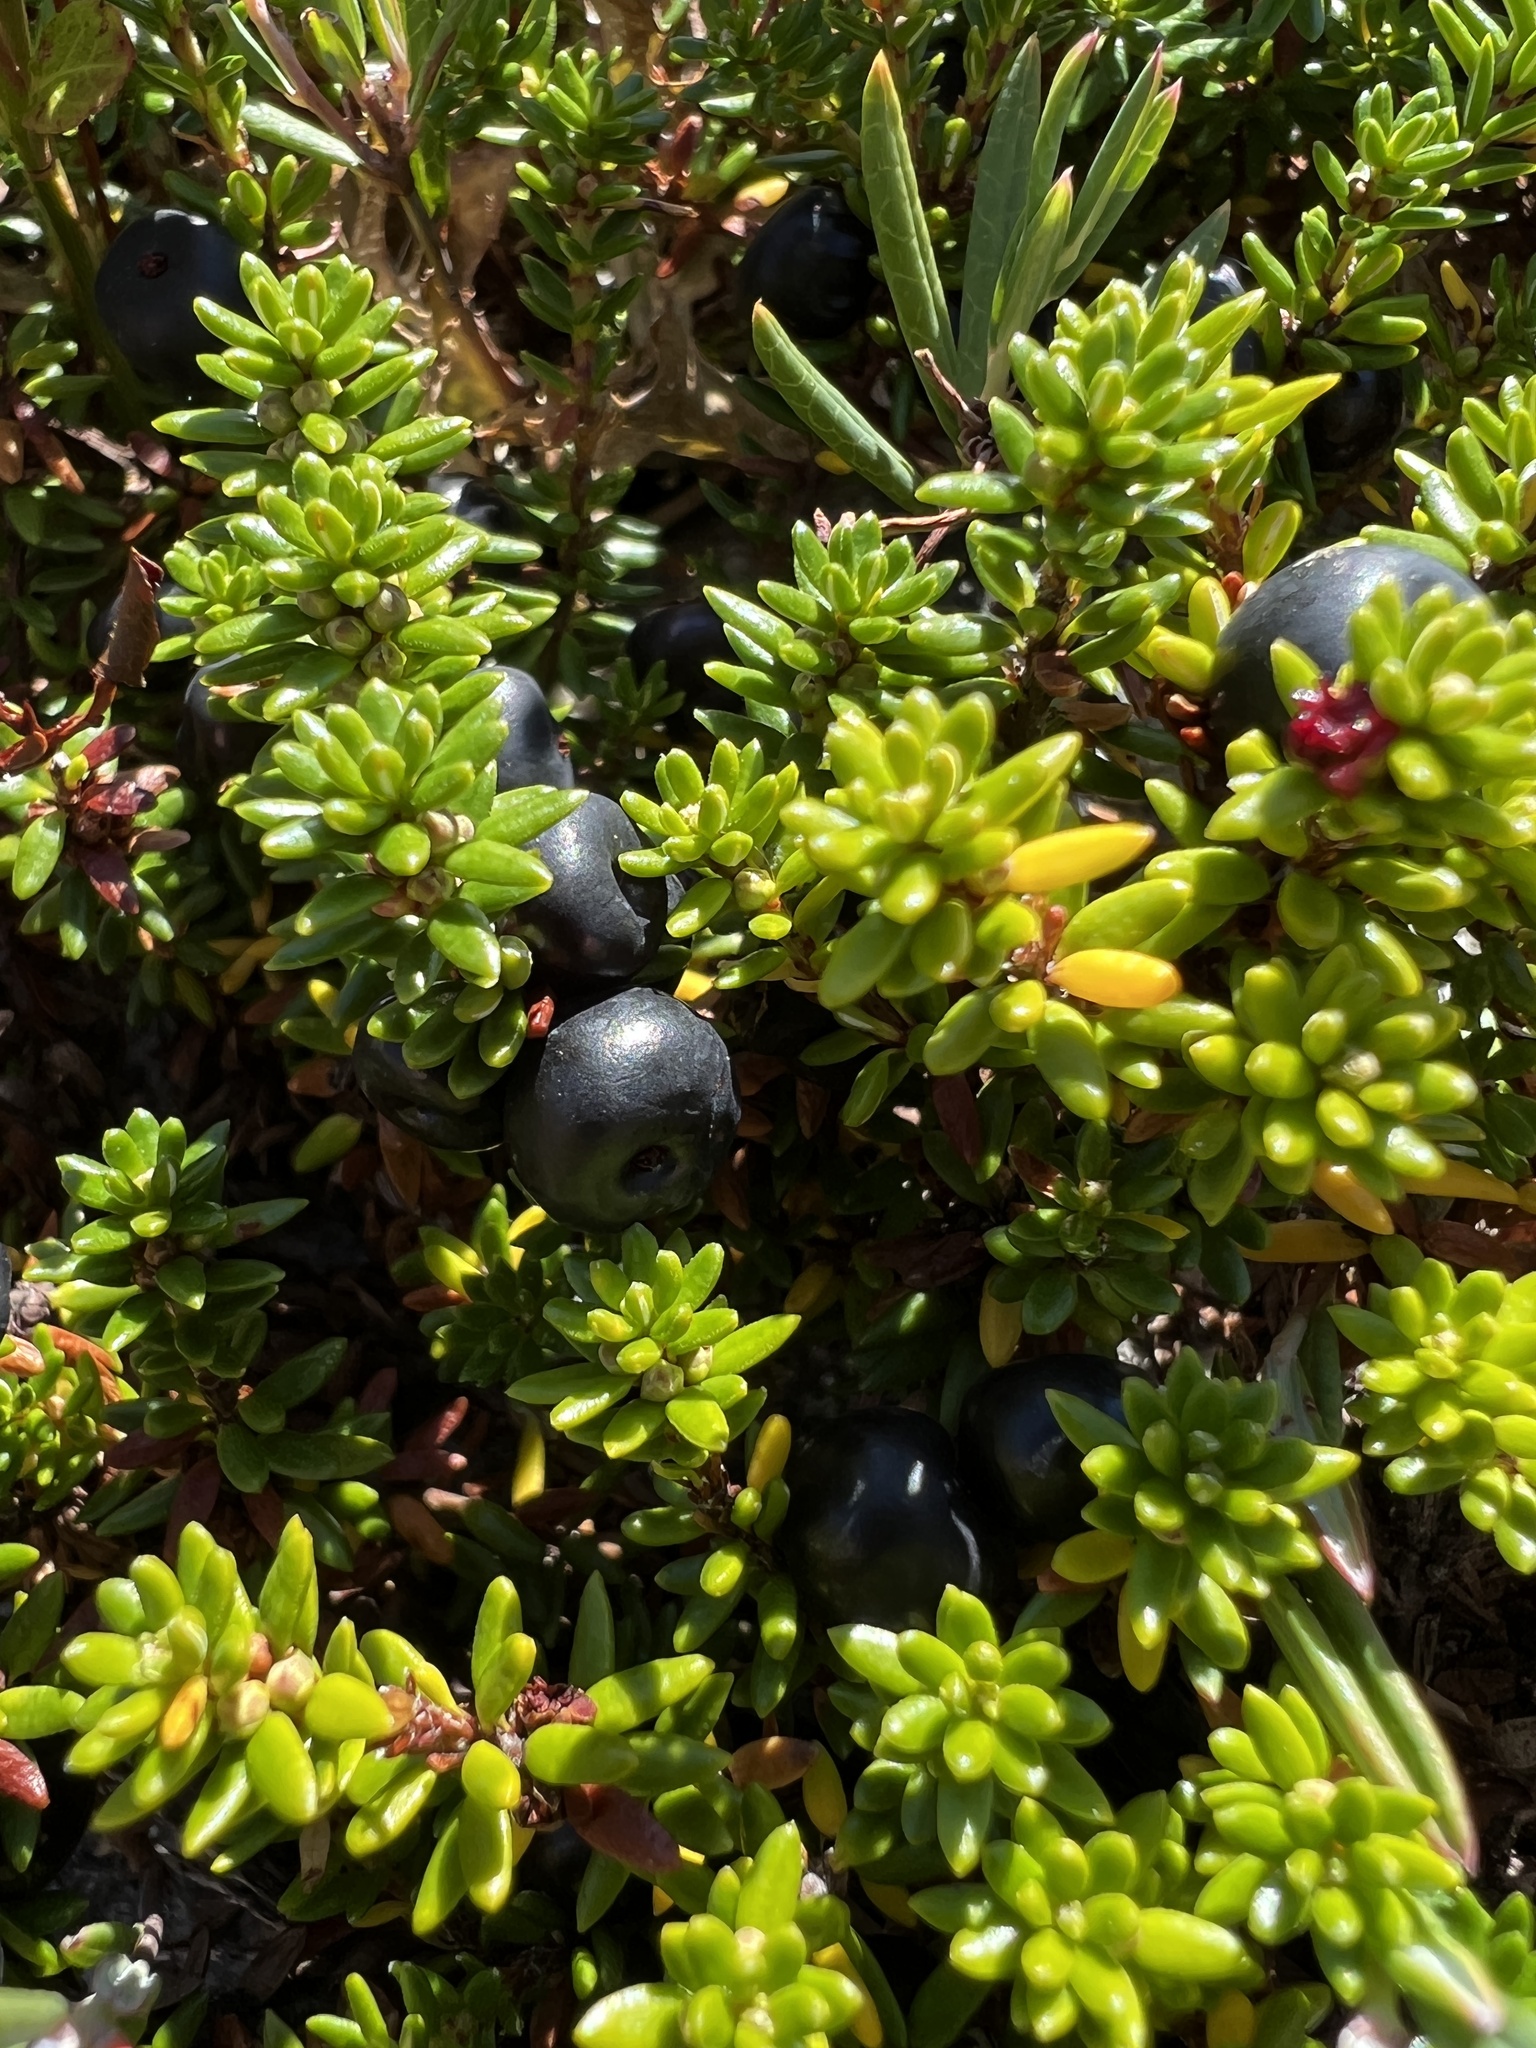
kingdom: Plantae
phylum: Tracheophyta
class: Magnoliopsida
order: Ericales
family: Ericaceae
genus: Empetrum
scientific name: Empetrum nigrum
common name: Black crowberry
